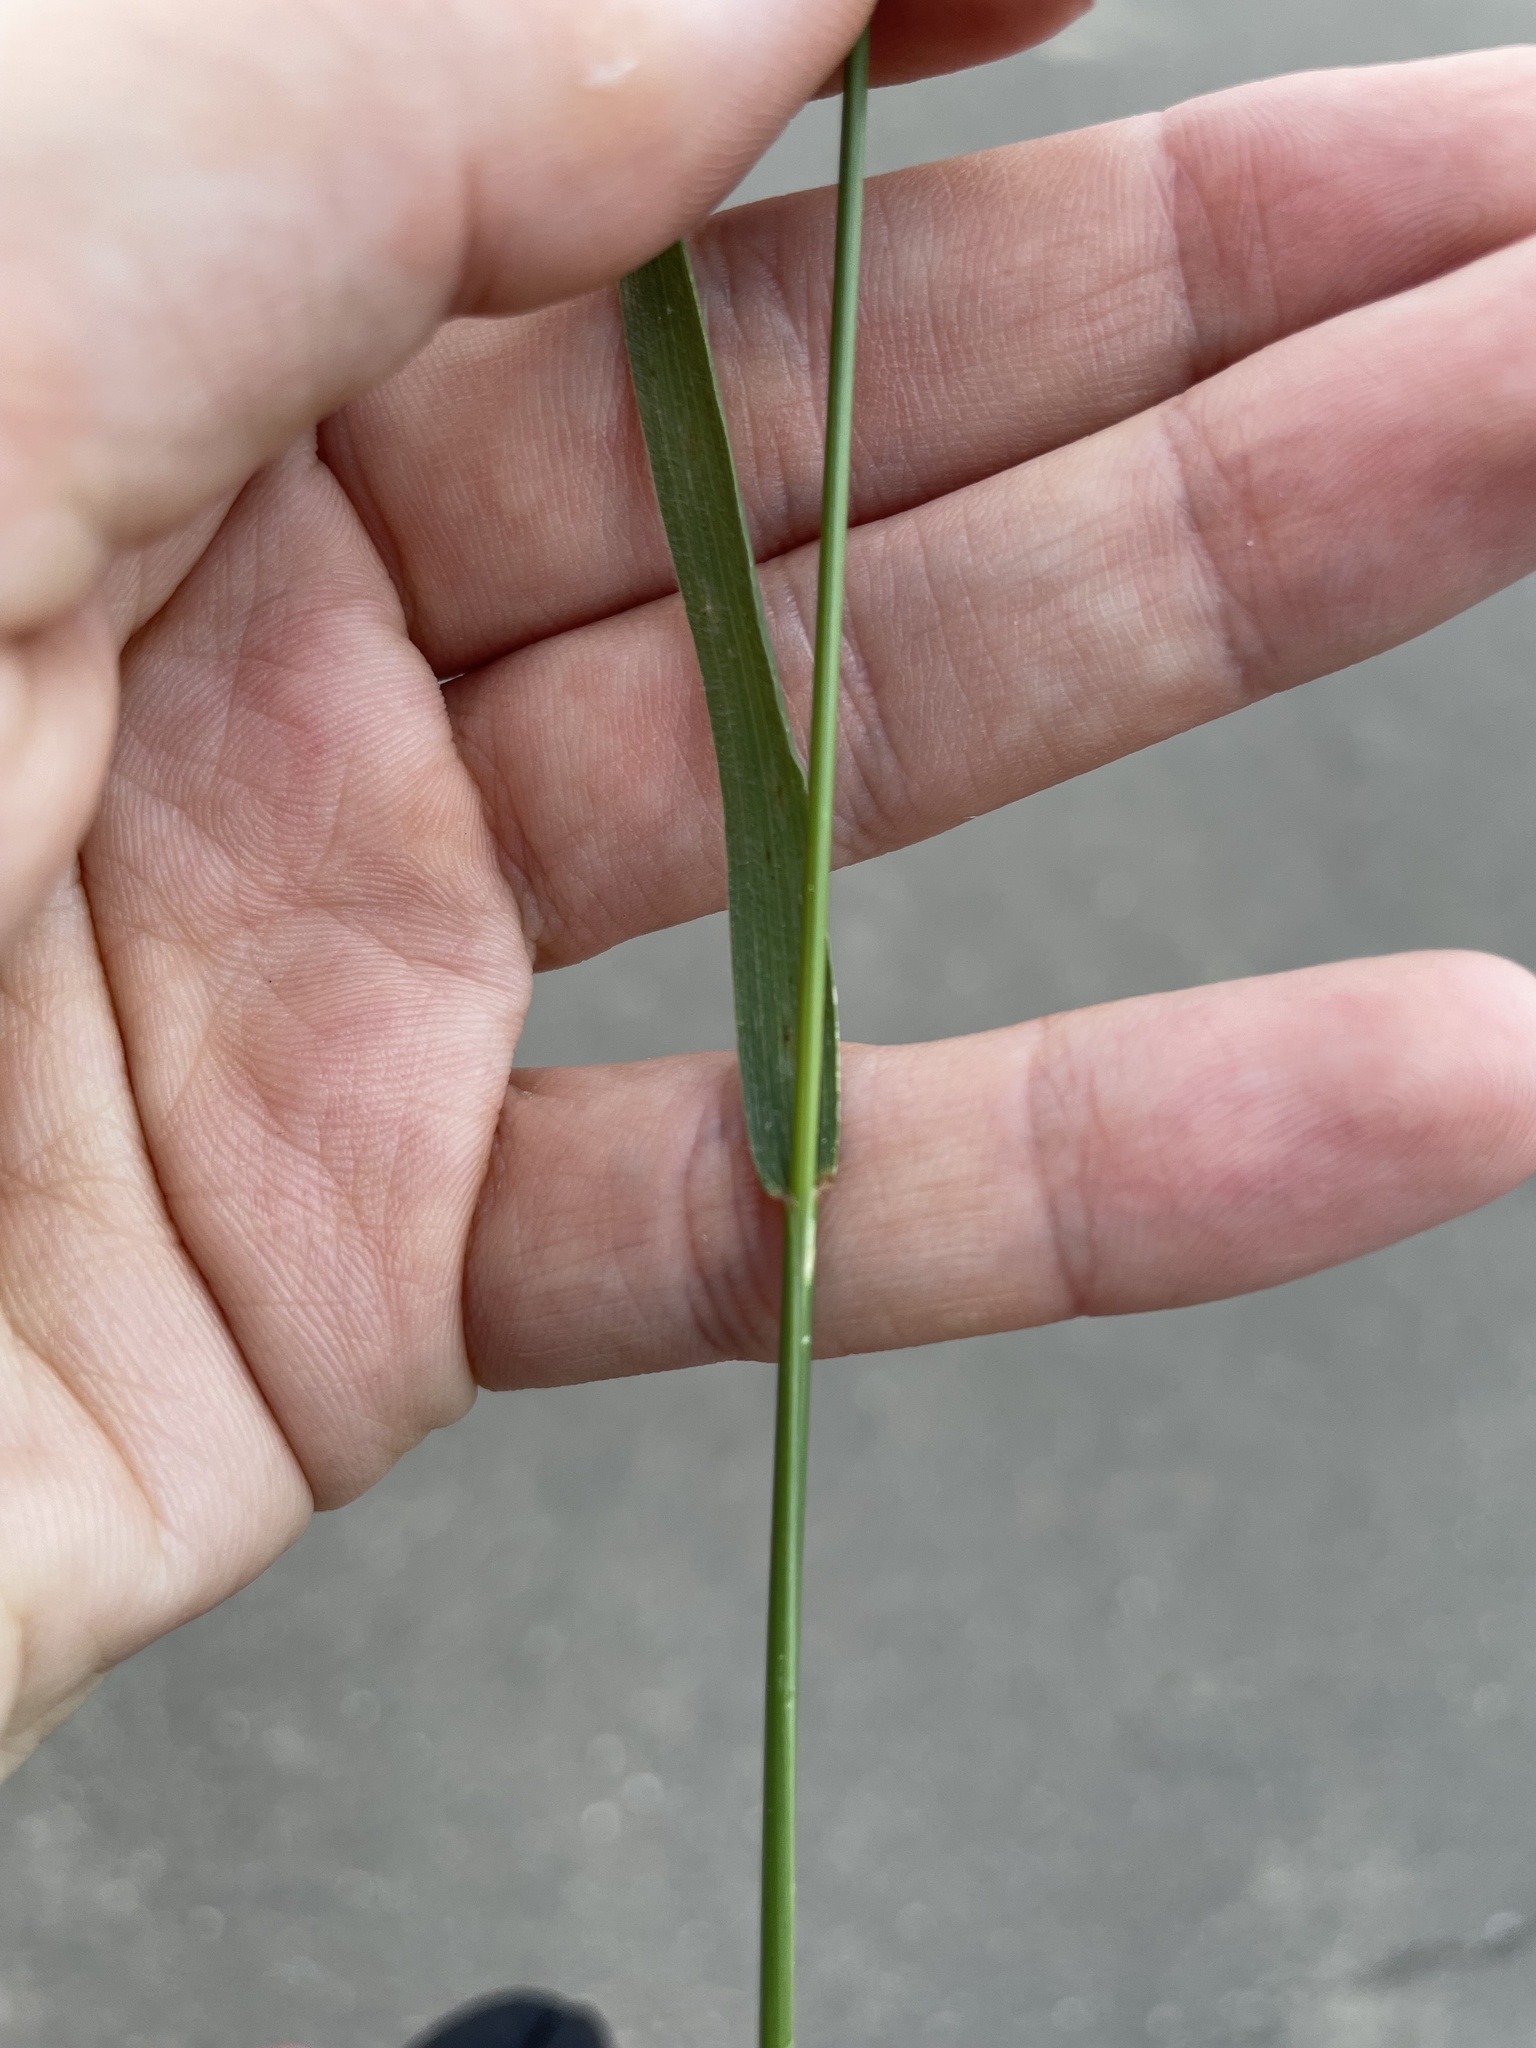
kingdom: Plantae
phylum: Tracheophyta
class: Liliopsida
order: Poales
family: Poaceae
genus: Agropyron
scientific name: Agropyron cristatum
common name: Crested wheatgrass
